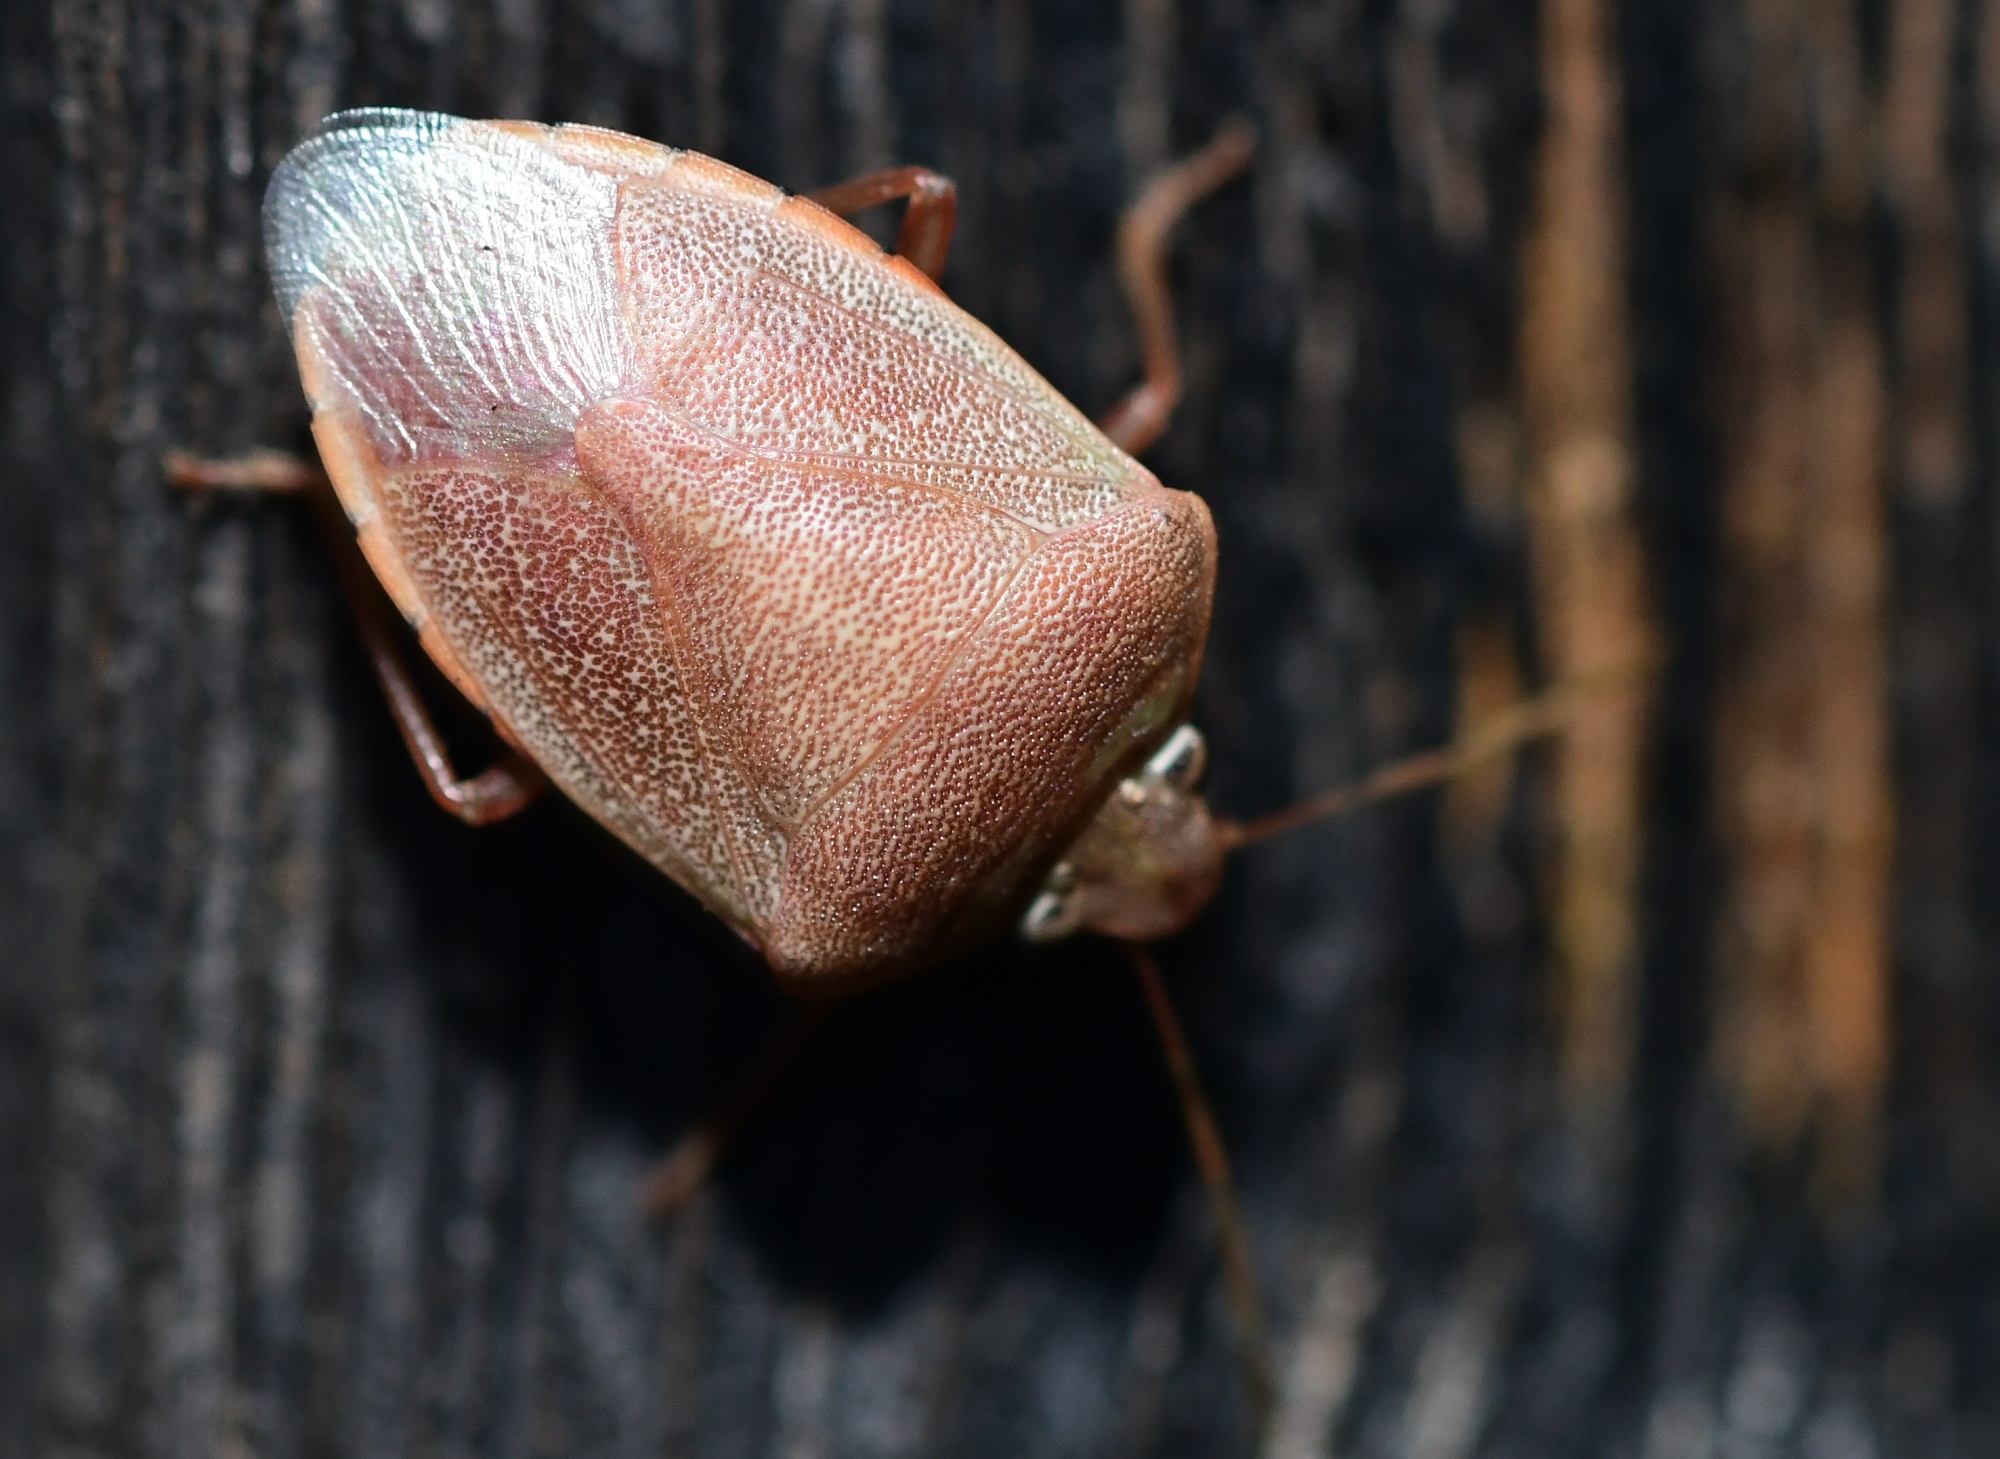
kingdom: Animalia
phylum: Arthropoda
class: Insecta
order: Hemiptera
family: Pentatomidae
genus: Acrosternum
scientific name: Acrosternum heegeri
